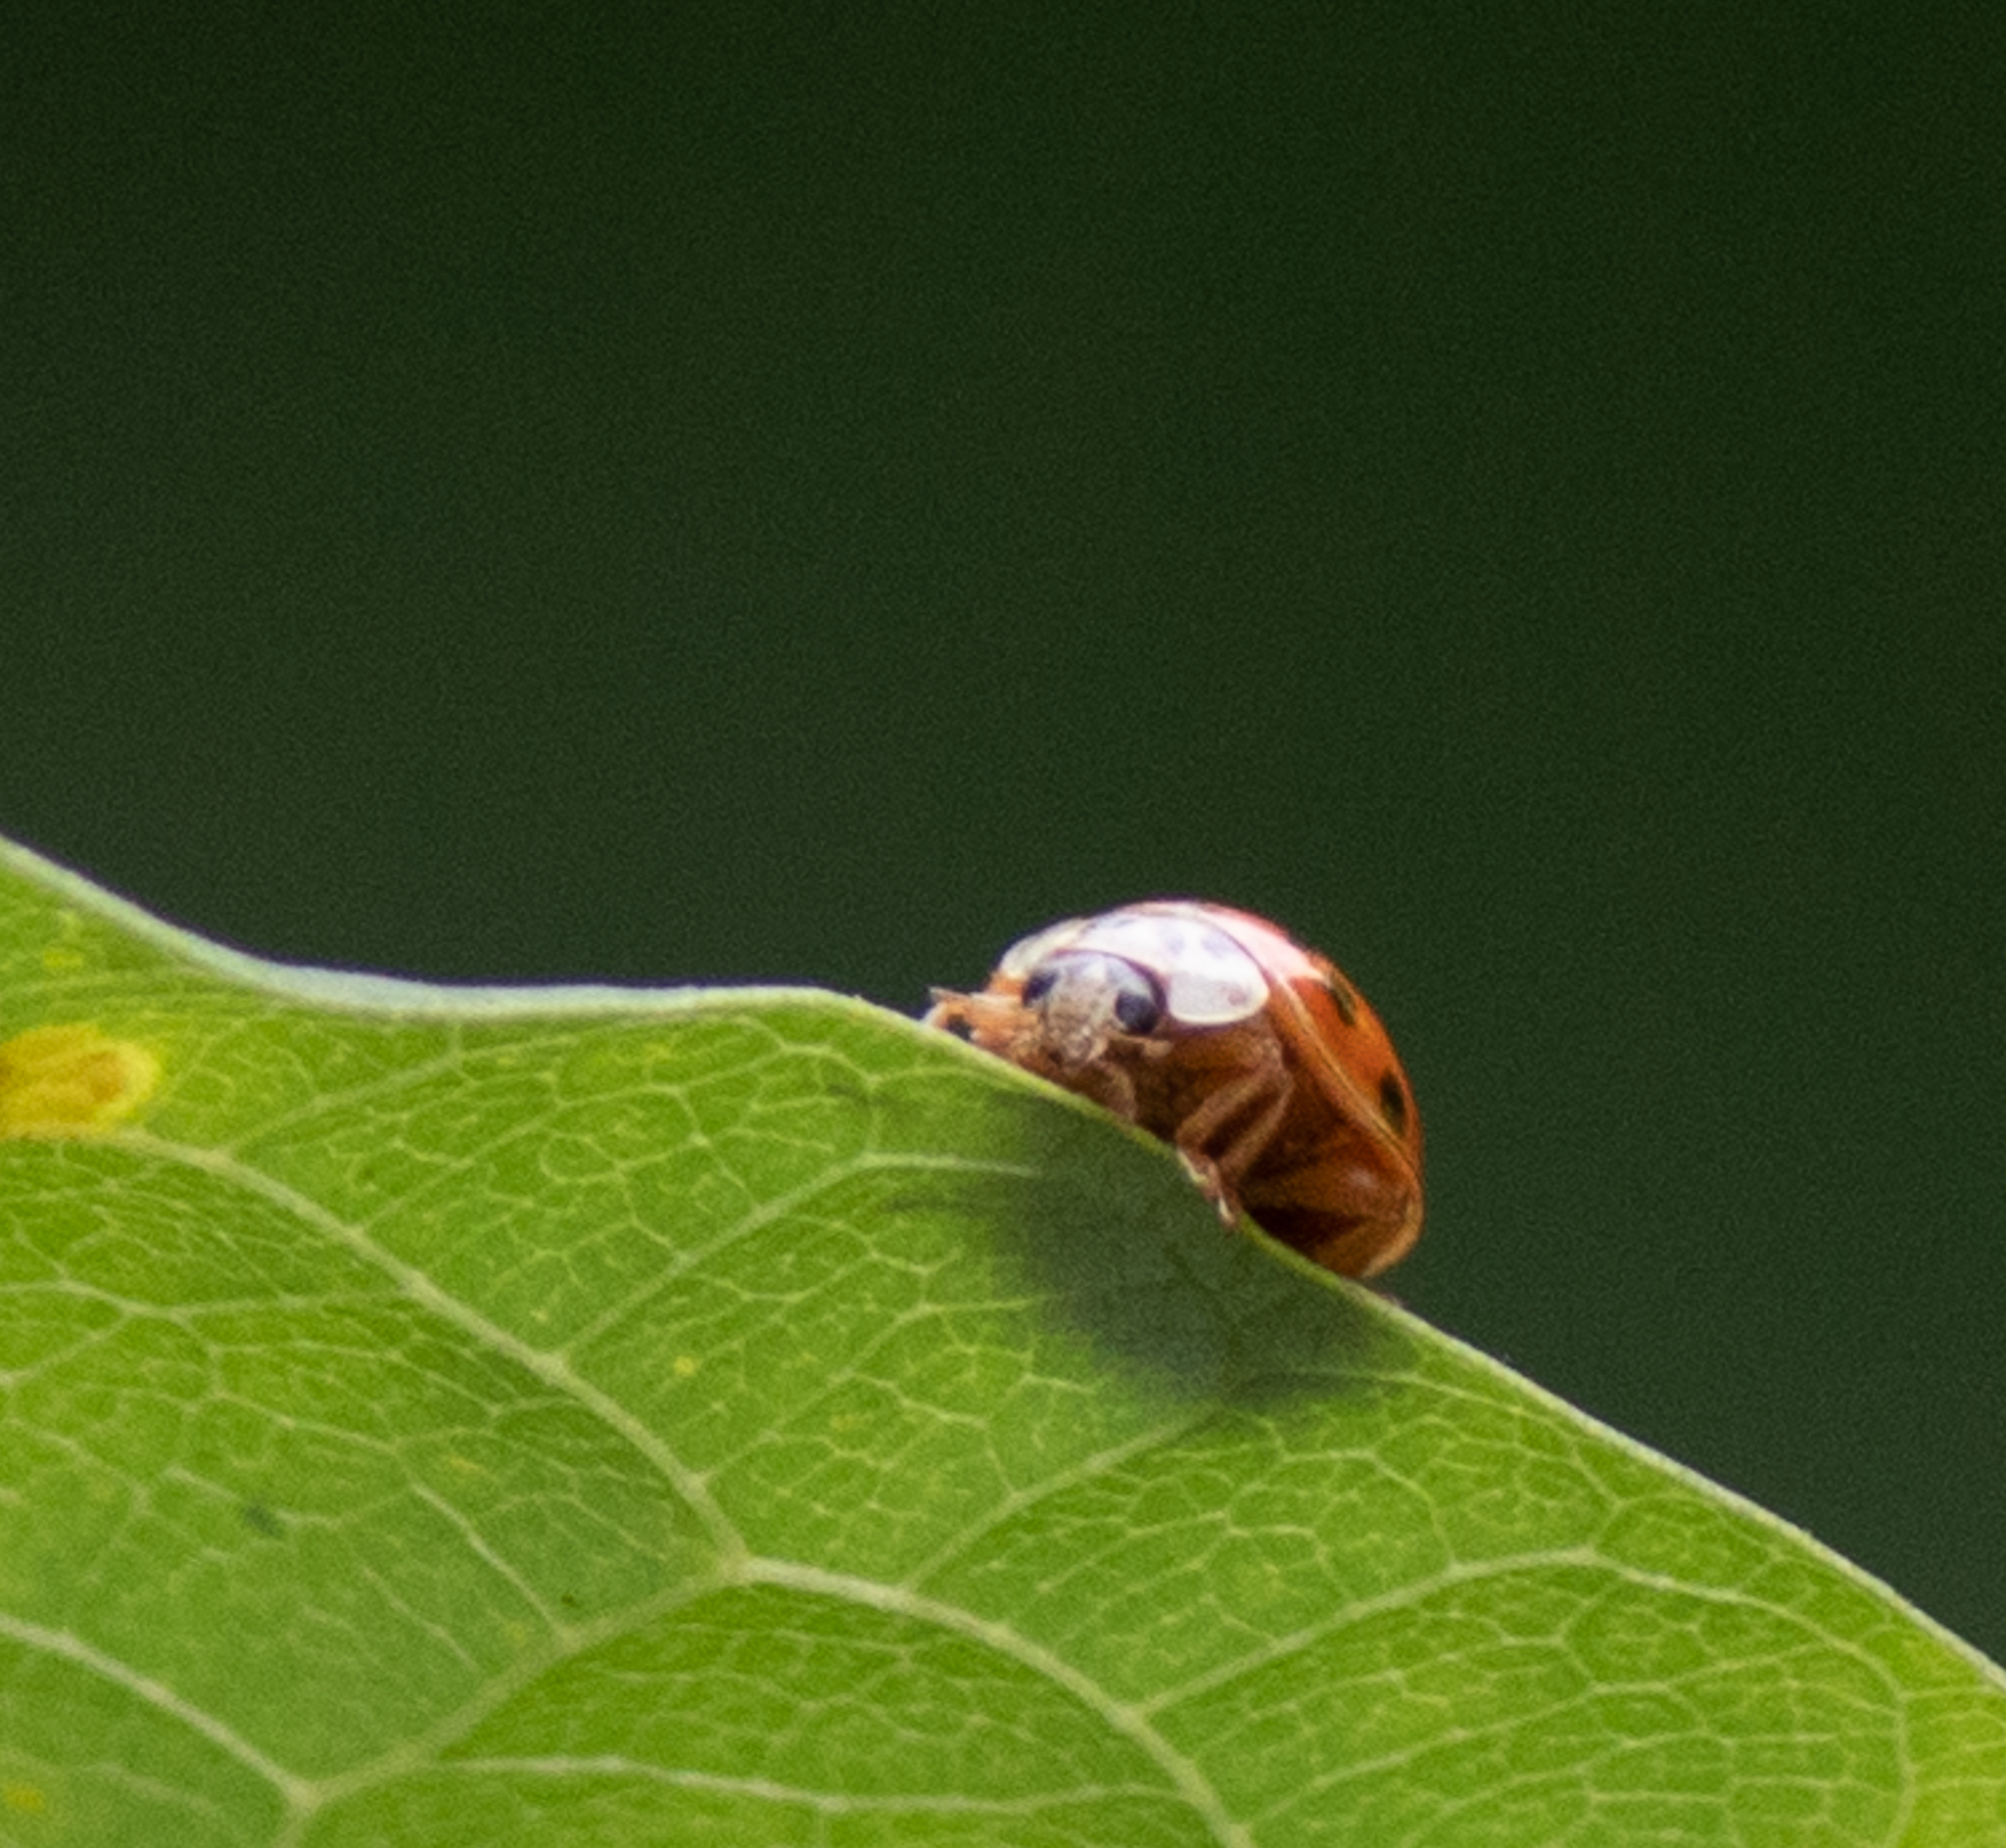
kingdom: Animalia
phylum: Arthropoda
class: Insecta
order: Coleoptera
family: Coccinellidae
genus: Harmonia
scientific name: Harmonia axyridis
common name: Harlequin ladybird
